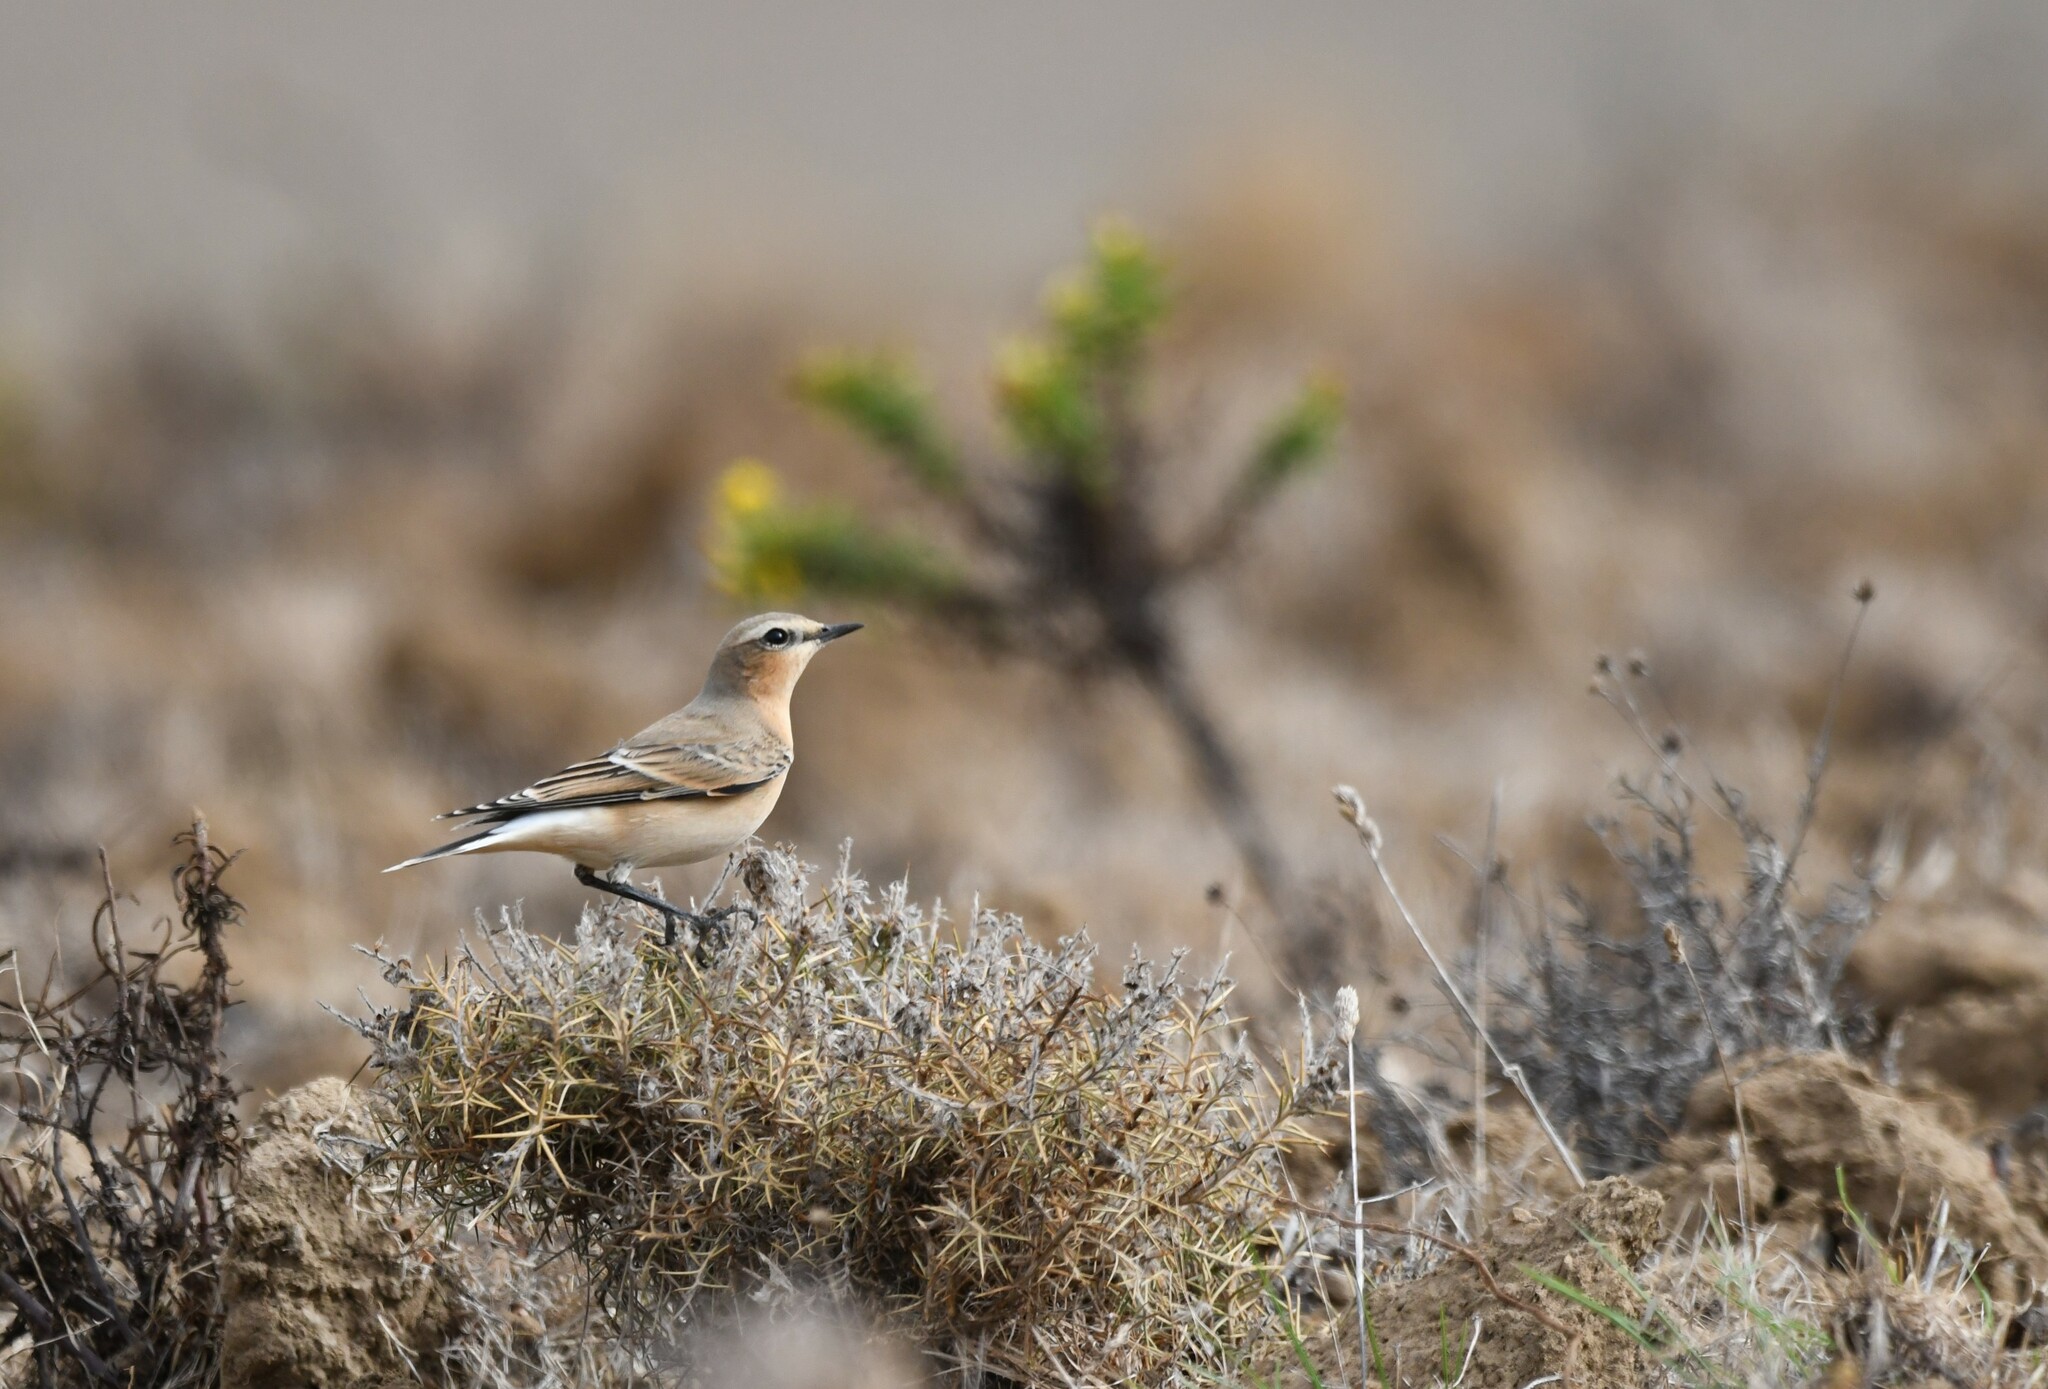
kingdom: Animalia
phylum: Chordata
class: Aves
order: Passeriformes
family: Muscicapidae
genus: Oenanthe
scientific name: Oenanthe oenanthe
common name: Northern wheatear
